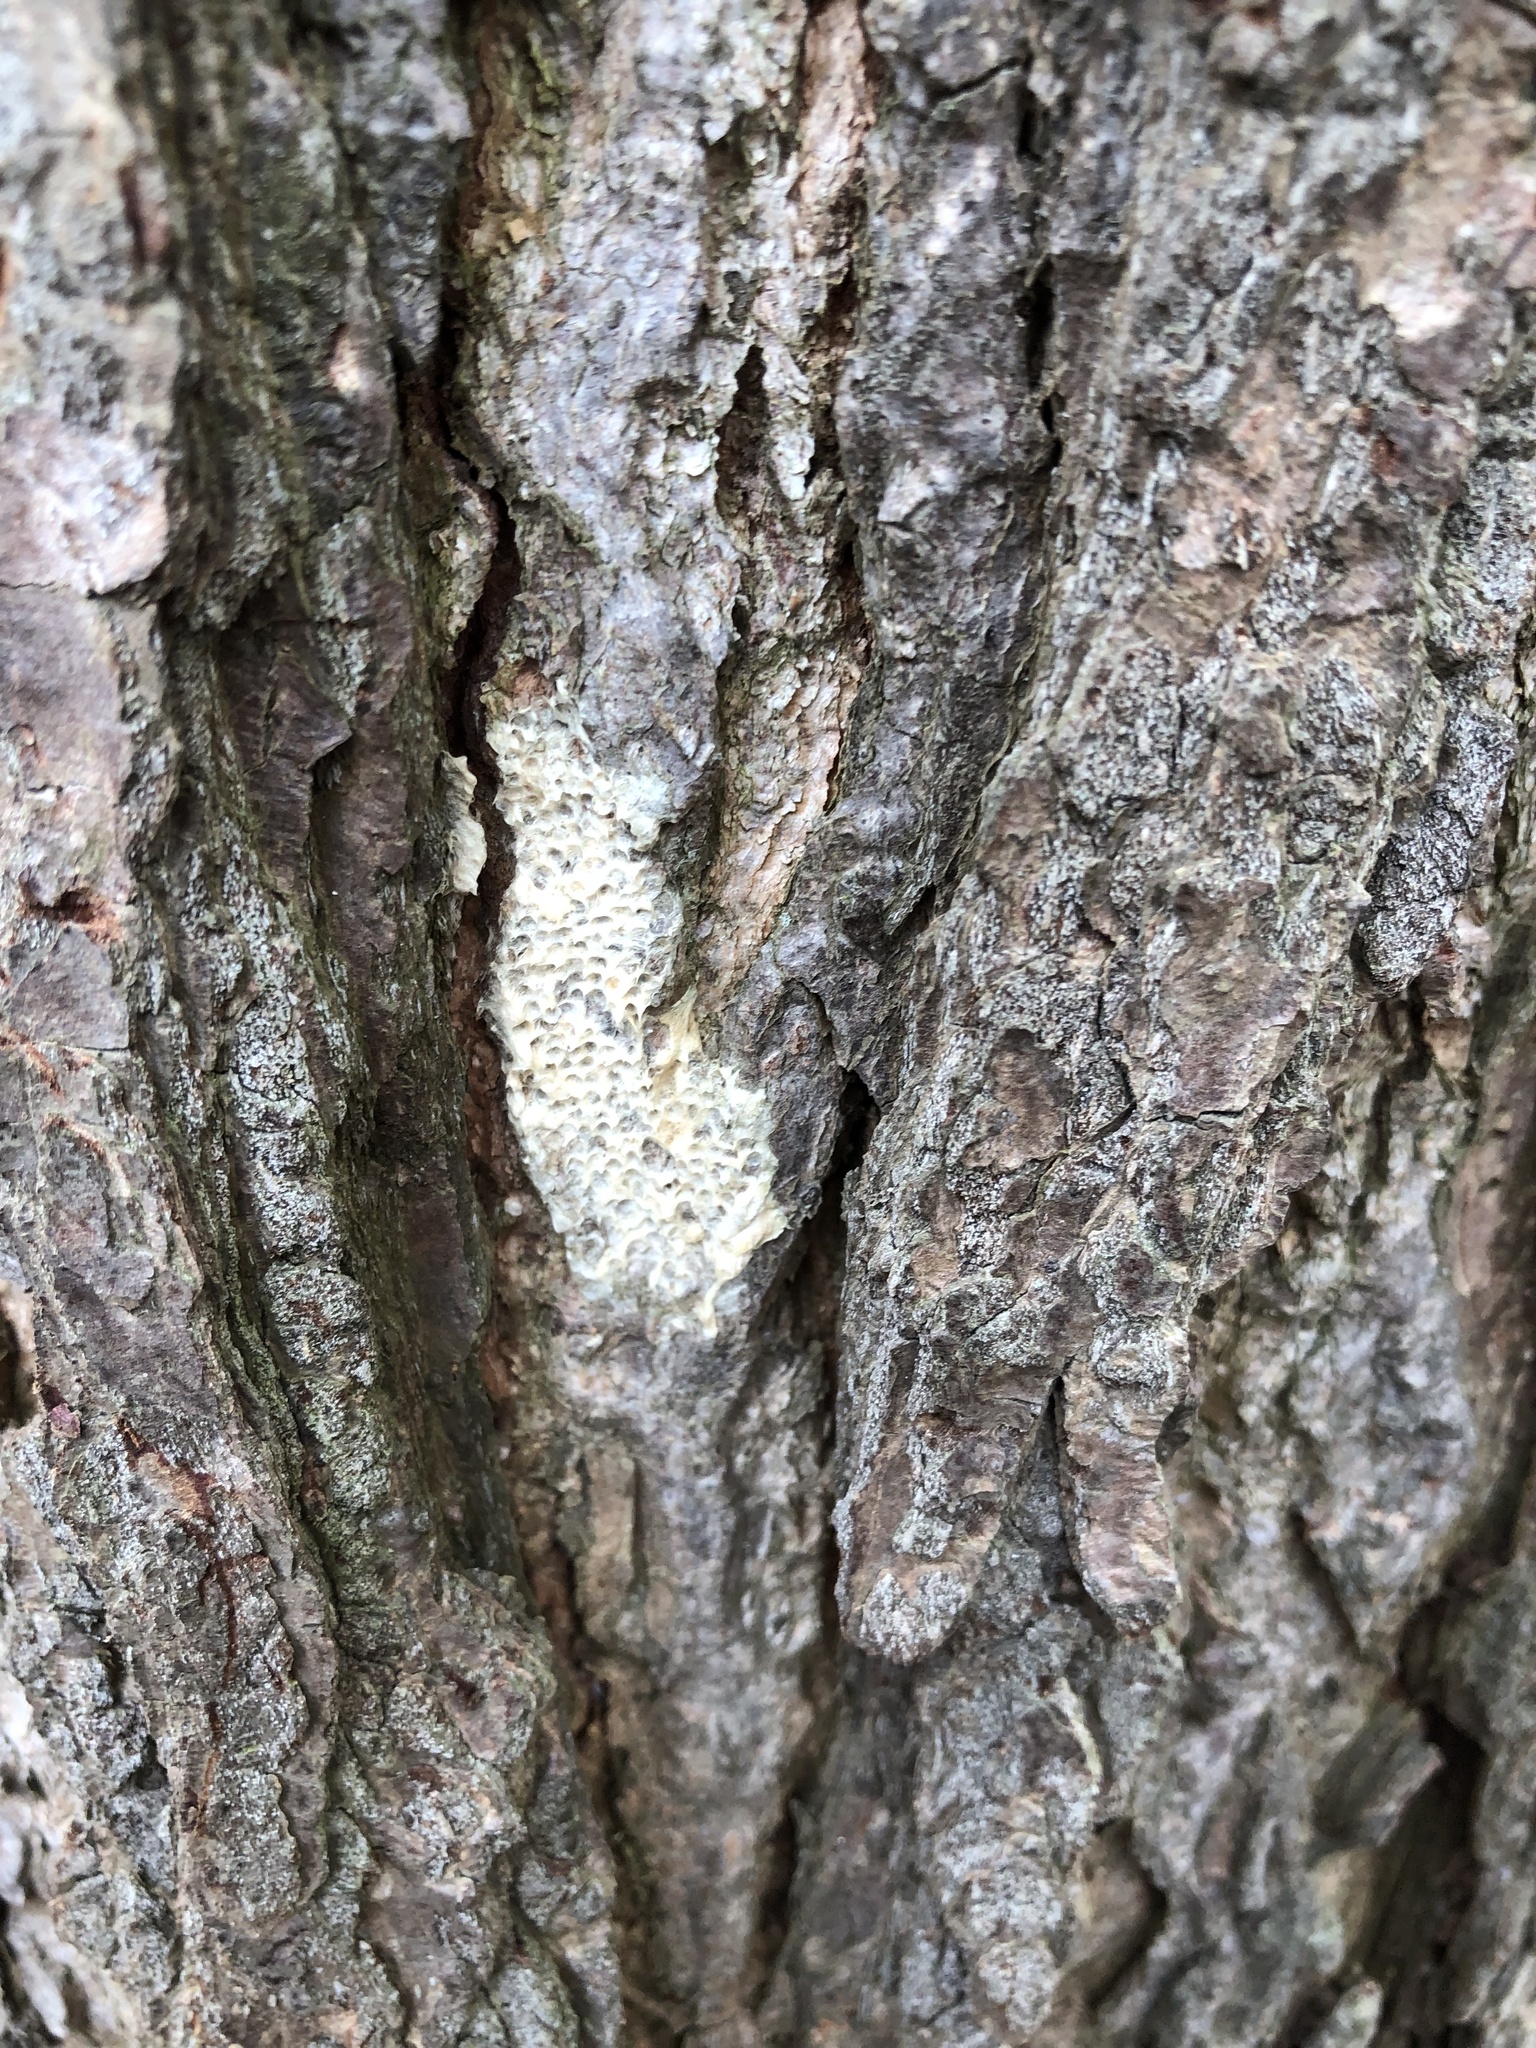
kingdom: Animalia
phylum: Arthropoda
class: Insecta
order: Lepidoptera
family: Erebidae
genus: Lymantria
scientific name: Lymantria dispar
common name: Gypsy moth
